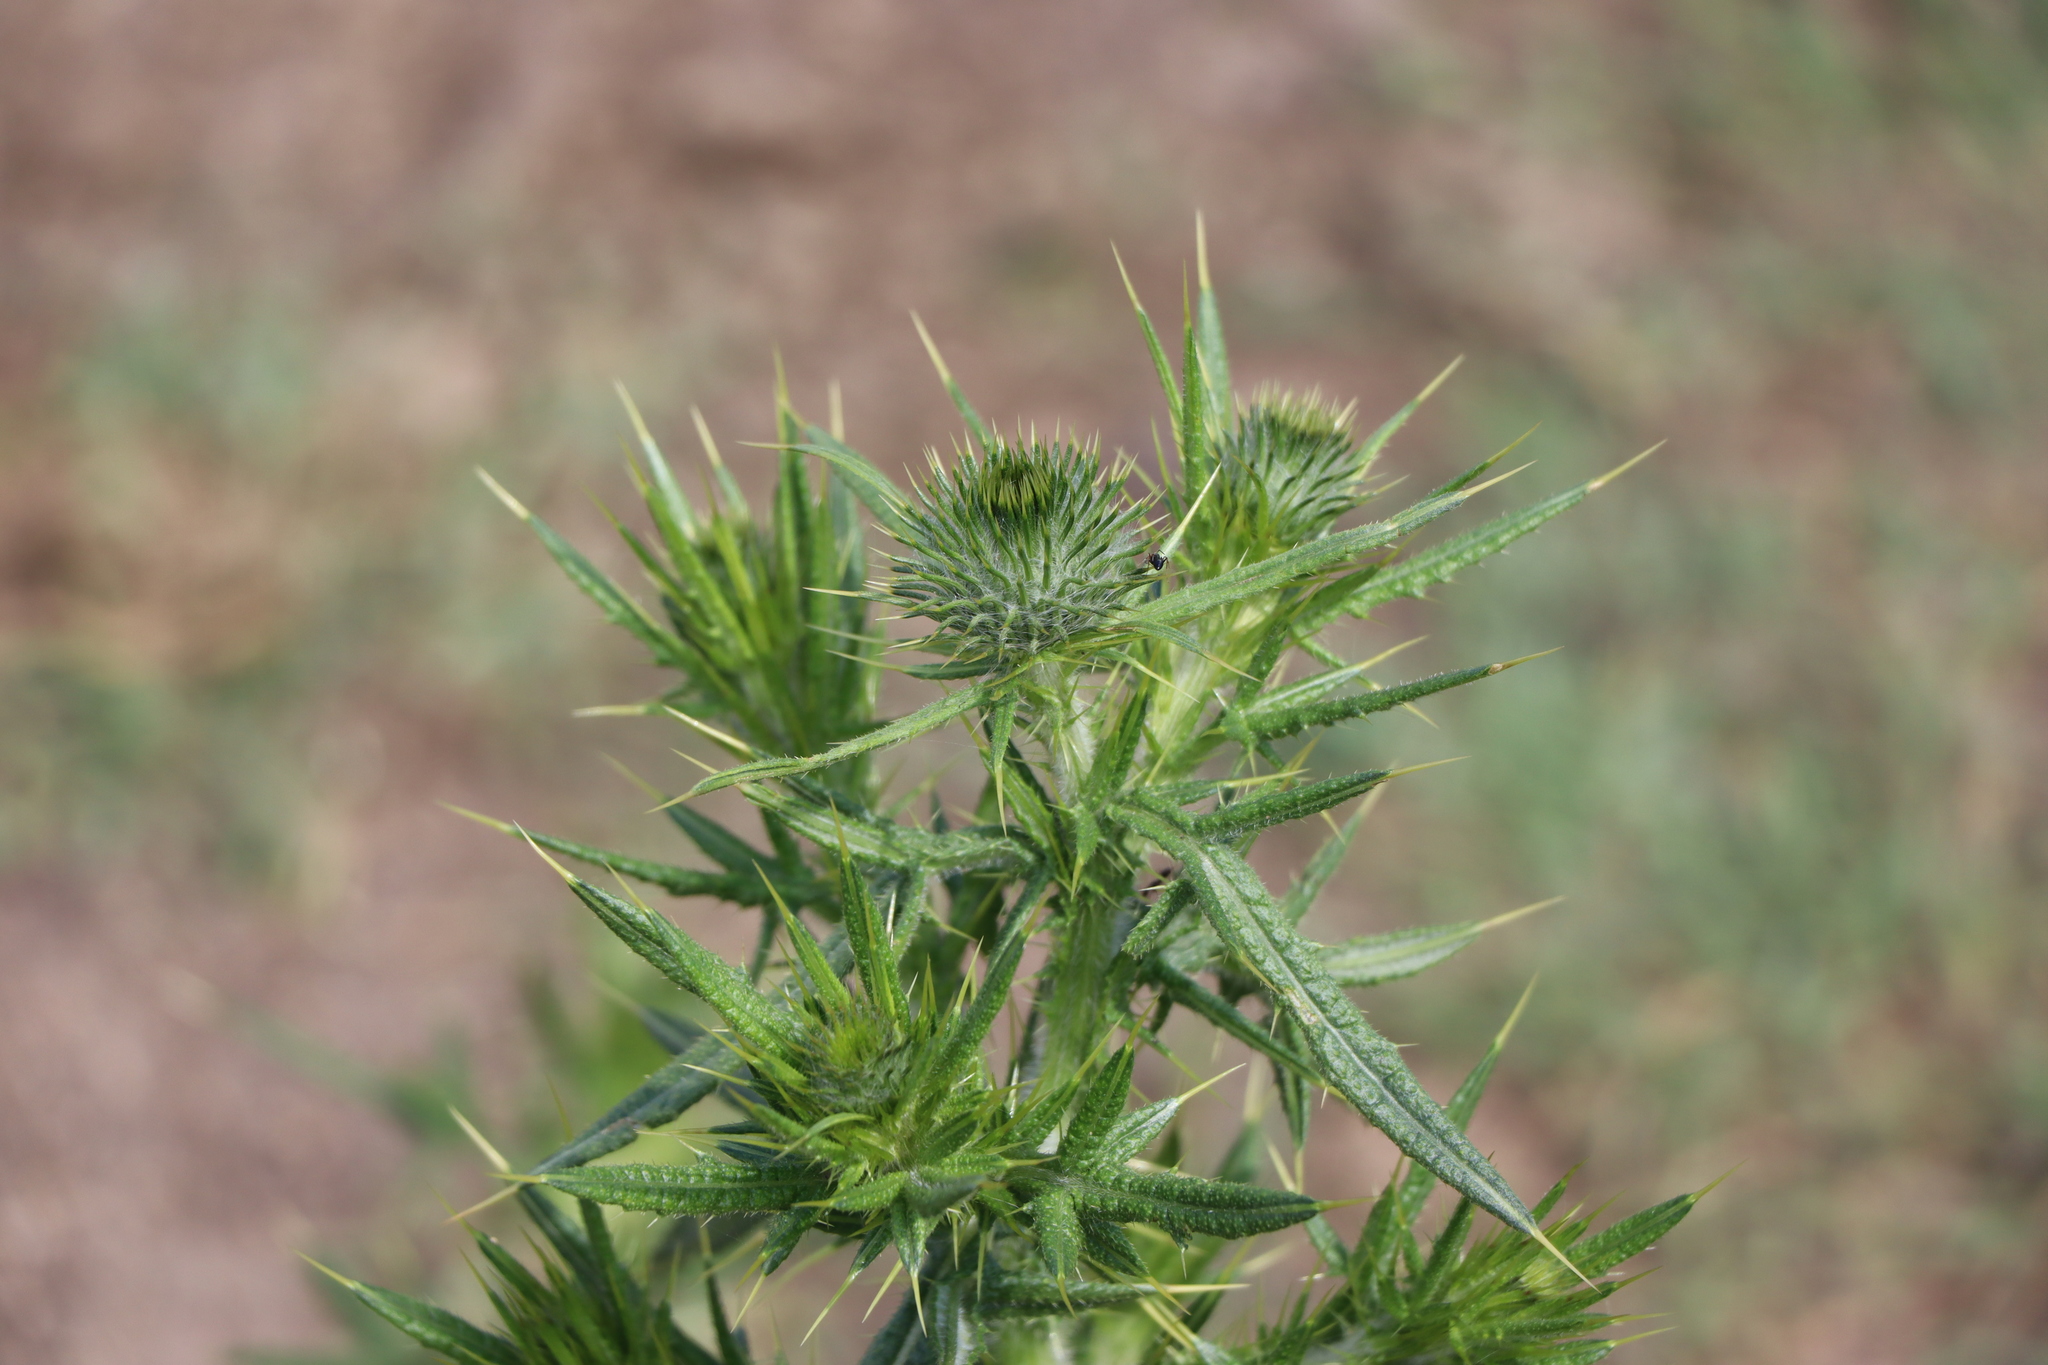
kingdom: Plantae
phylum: Tracheophyta
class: Magnoliopsida
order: Asterales
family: Asteraceae
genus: Cirsium
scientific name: Cirsium vulgare
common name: Bull thistle
